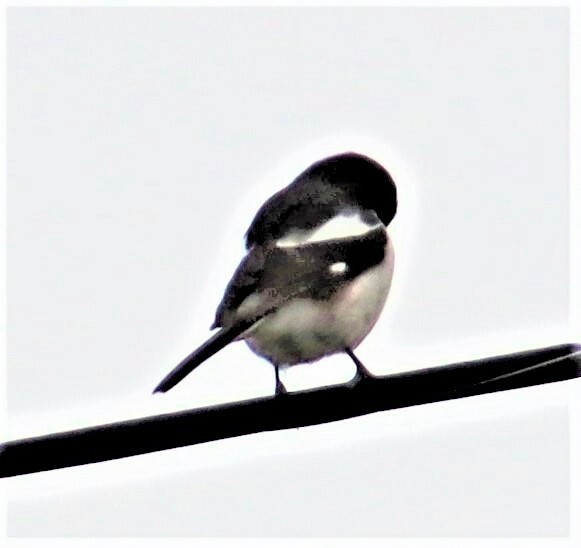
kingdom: Animalia
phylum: Chordata
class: Aves
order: Passeriformes
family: Laniidae
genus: Lanius
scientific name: Lanius collaris
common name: Southern fiscal
